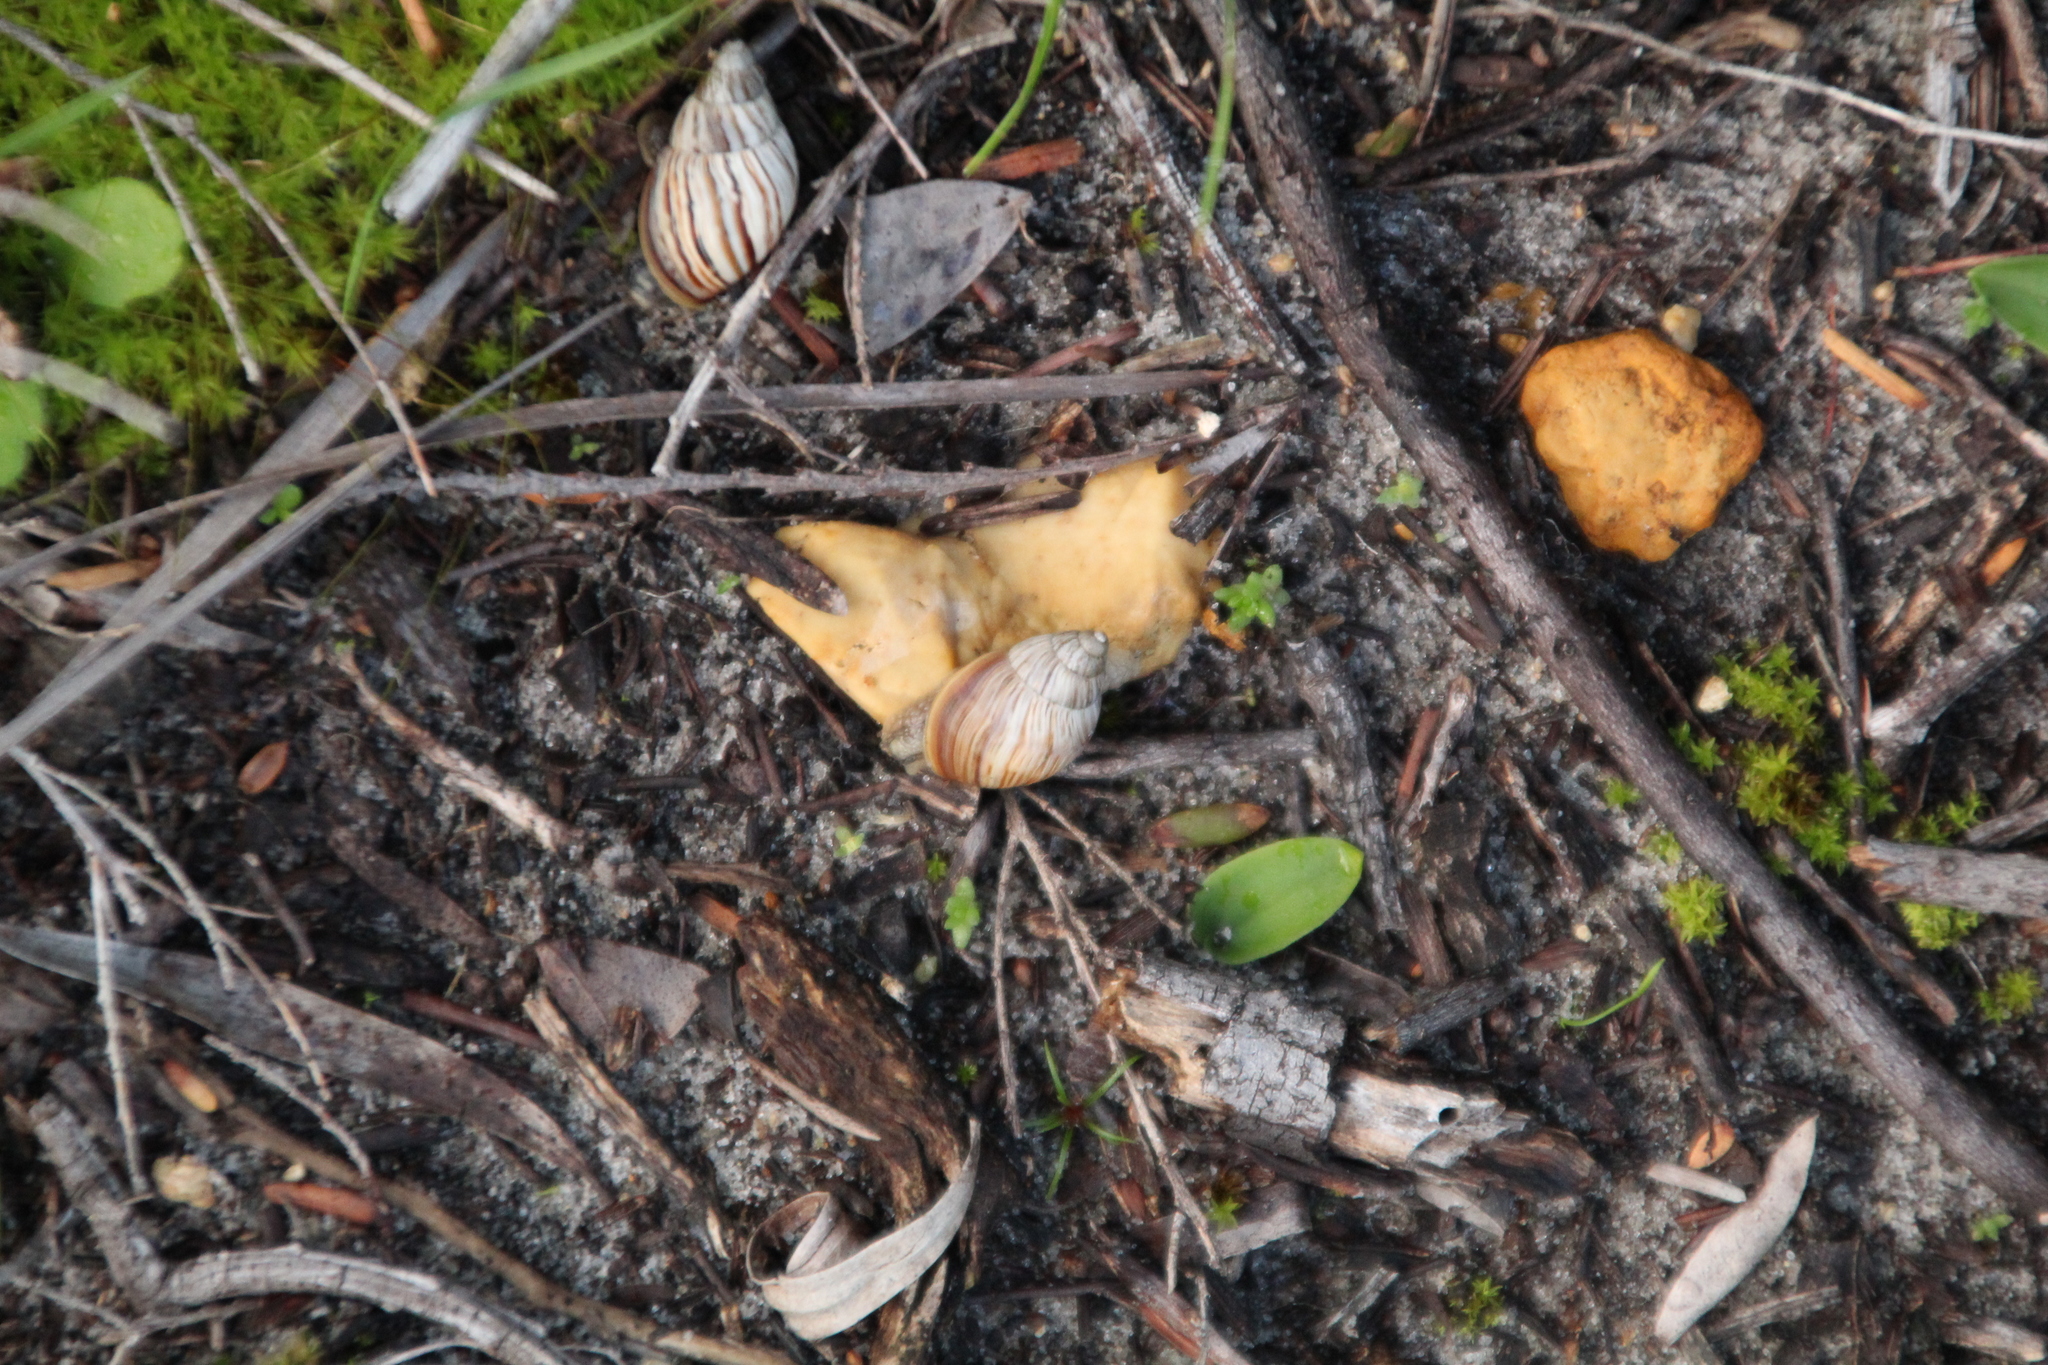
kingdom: Animalia
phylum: Mollusca
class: Gastropoda
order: Stylommatophora
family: Bothriembryontidae
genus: Bothriembryon
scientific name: Bothriembryon kingii
